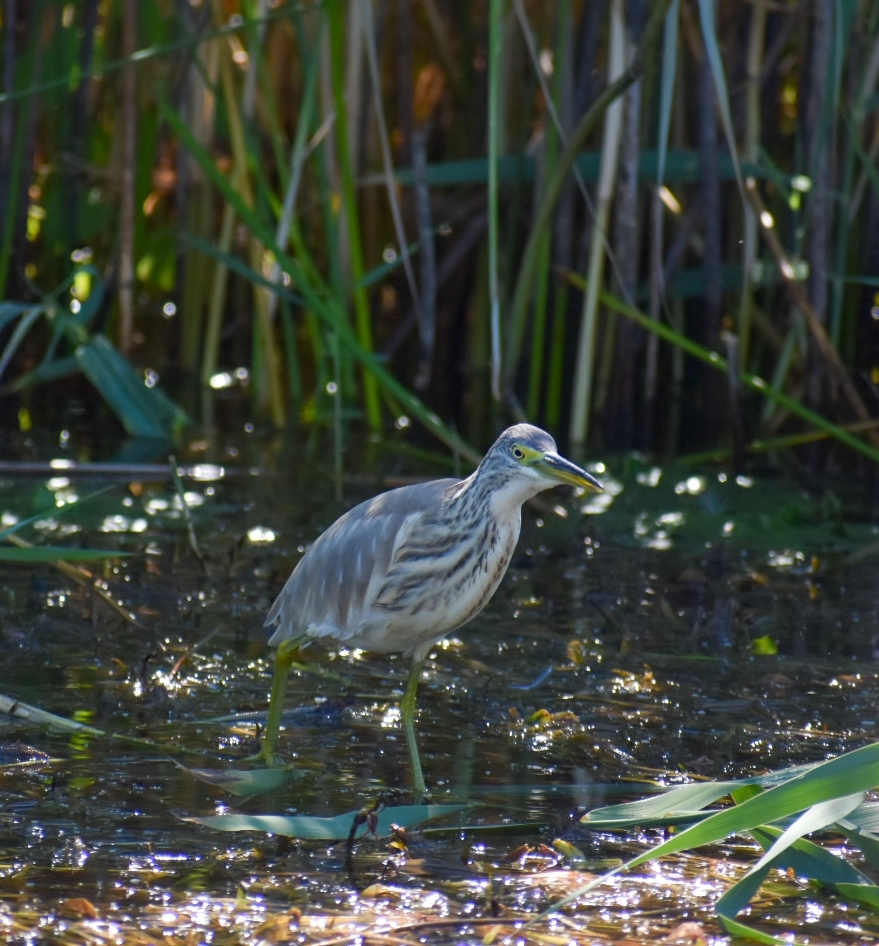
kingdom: Animalia
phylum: Chordata
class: Aves
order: Pelecaniformes
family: Ardeidae
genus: Ardeola
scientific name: Ardeola ralloides
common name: Squacco heron
